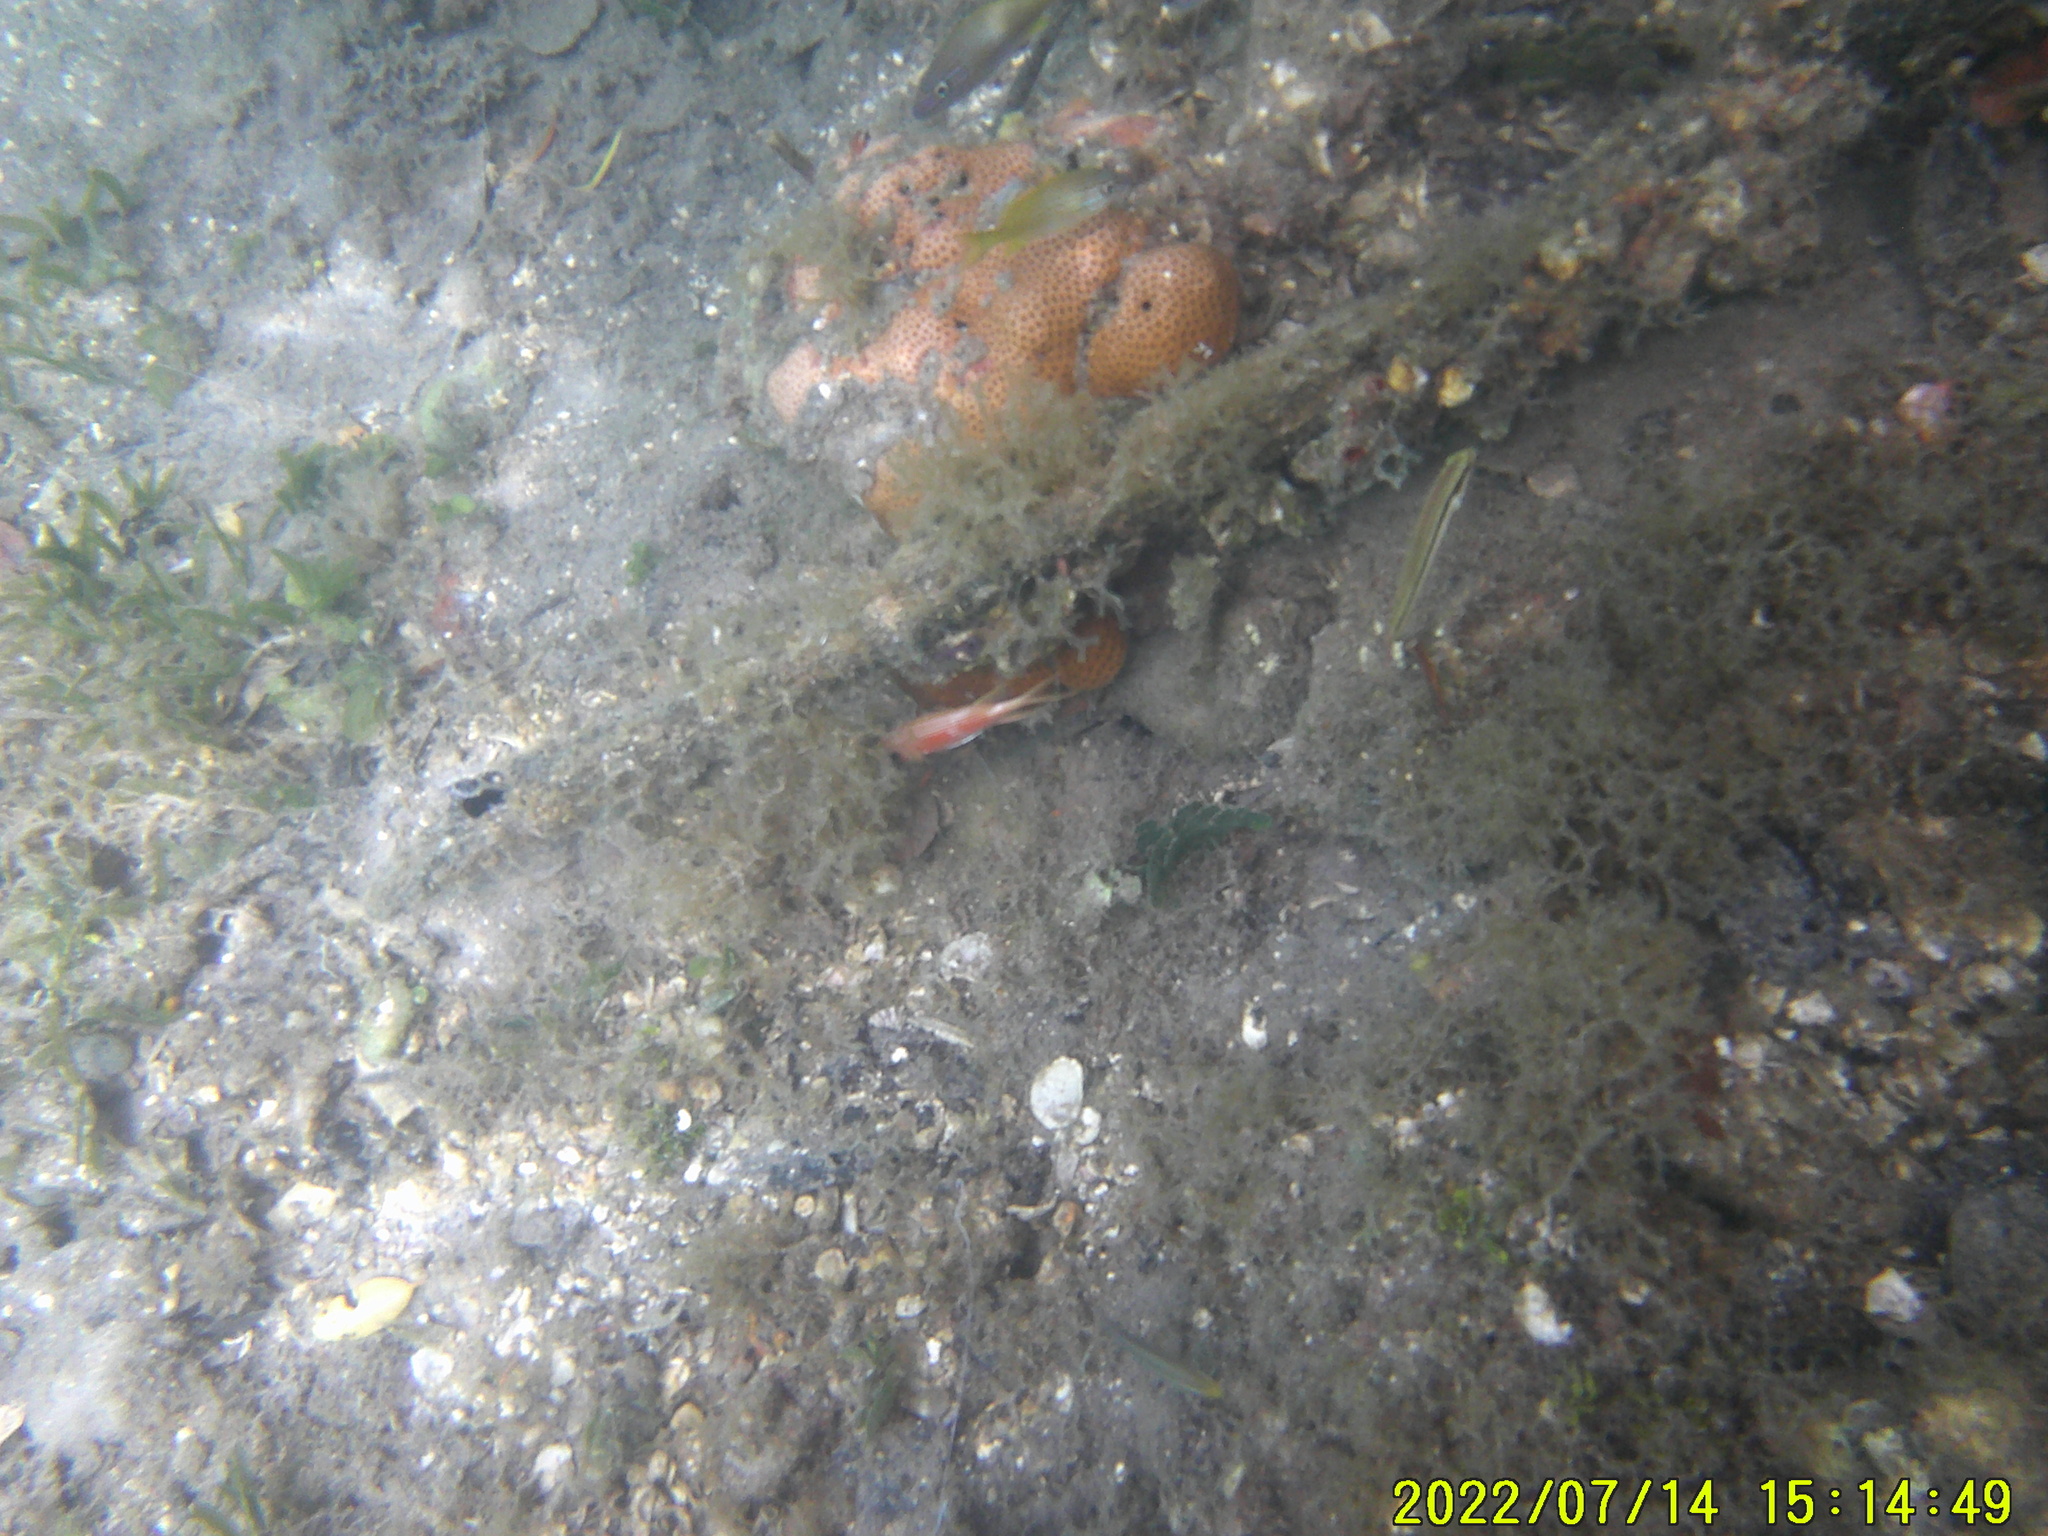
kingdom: Animalia
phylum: Chordata
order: Beryciformes
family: Holocentridae
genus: Holocentrus
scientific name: Holocentrus
